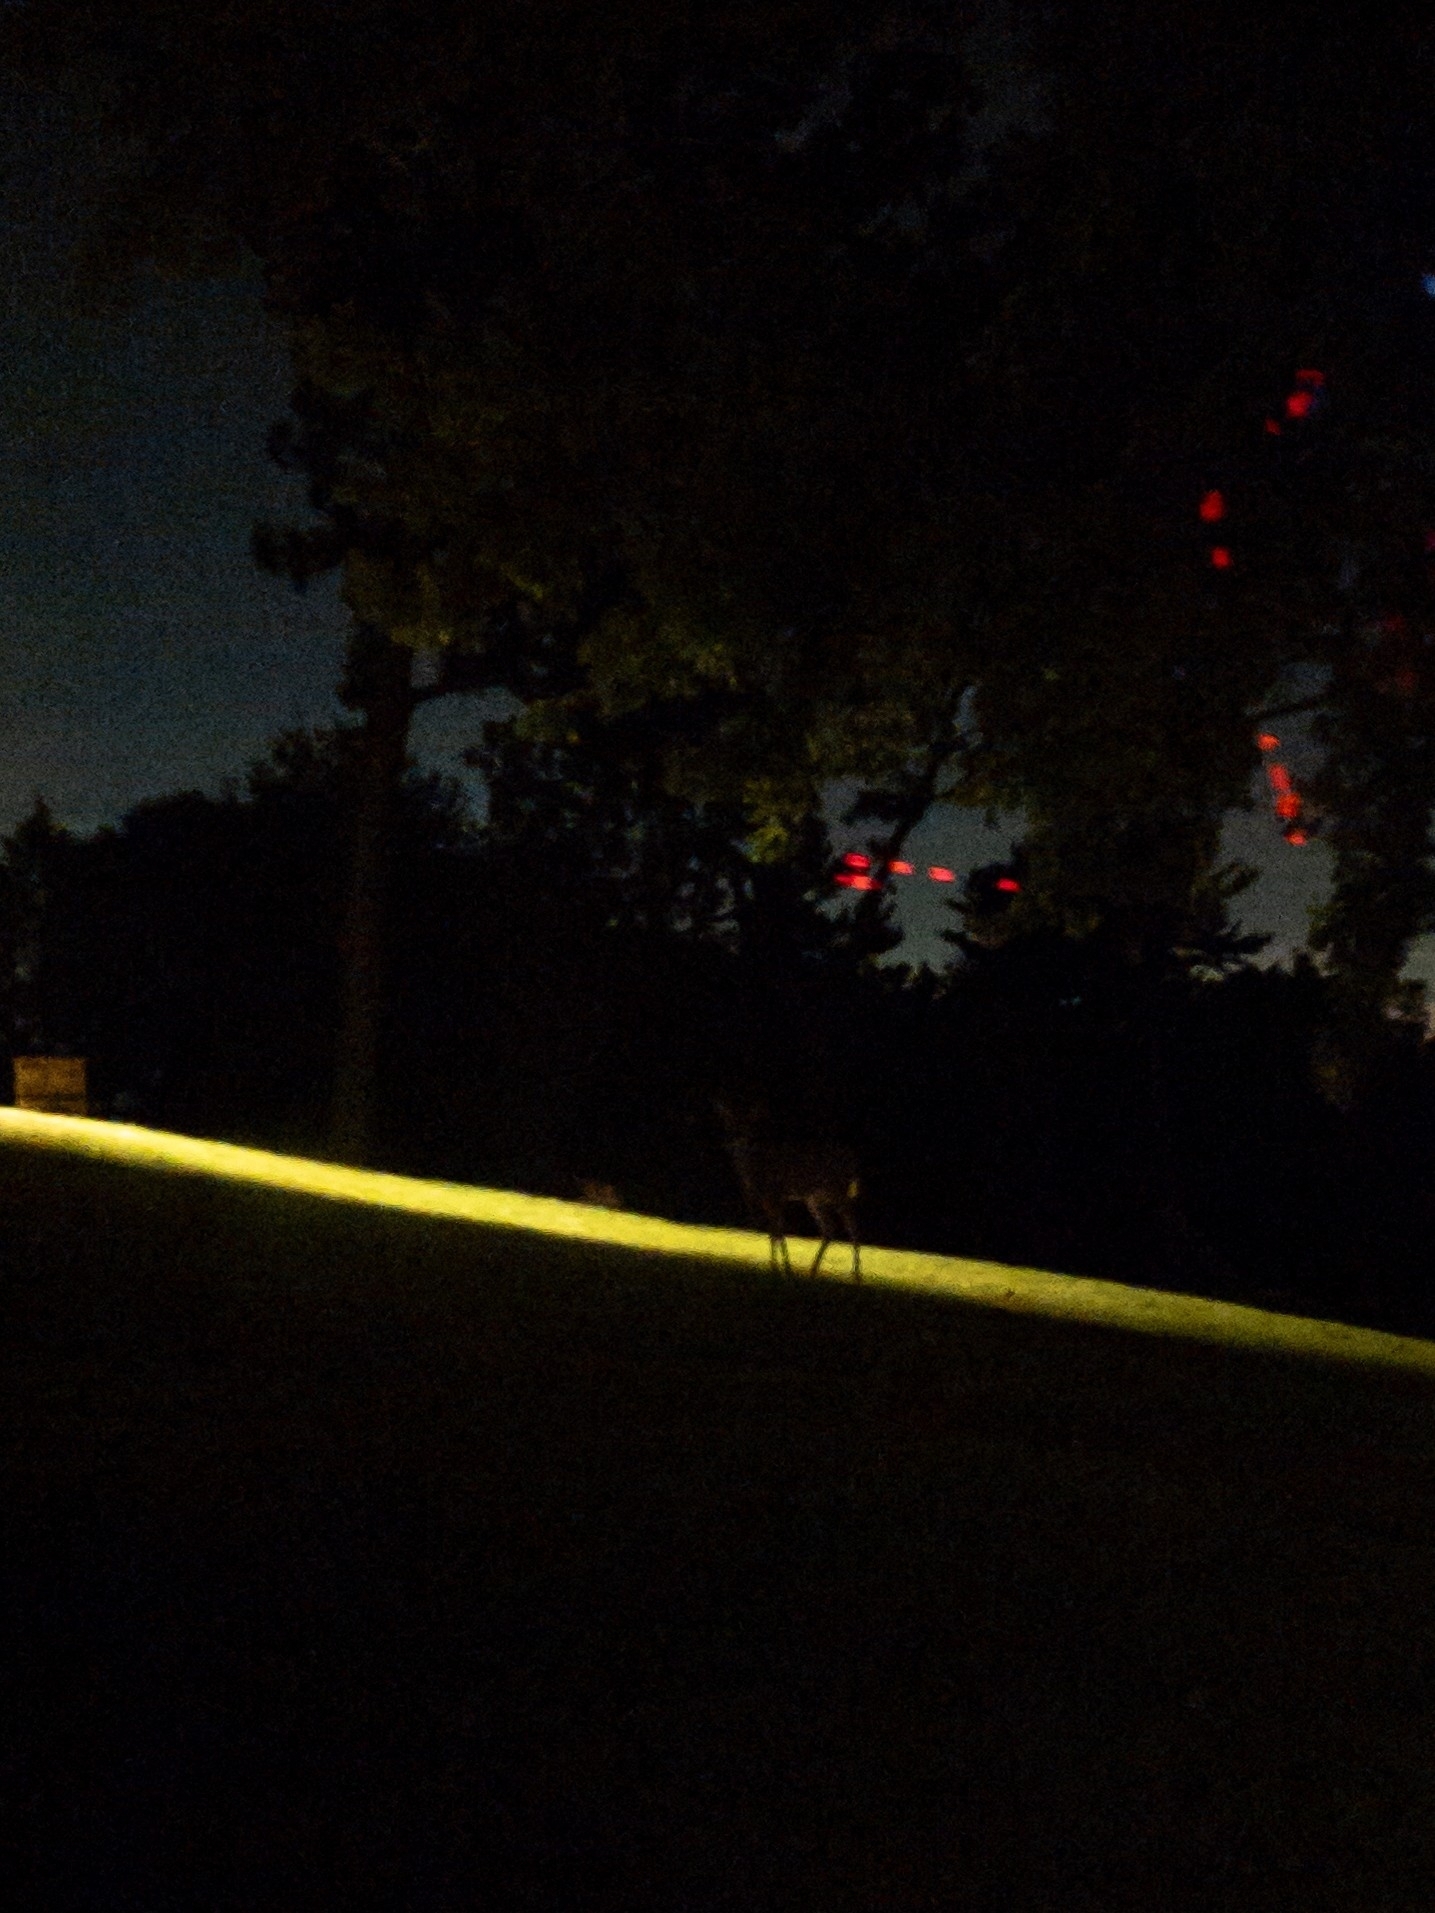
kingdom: Animalia
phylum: Chordata
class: Mammalia
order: Artiodactyla
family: Cervidae
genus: Odocoileus
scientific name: Odocoileus virginianus
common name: White-tailed deer
